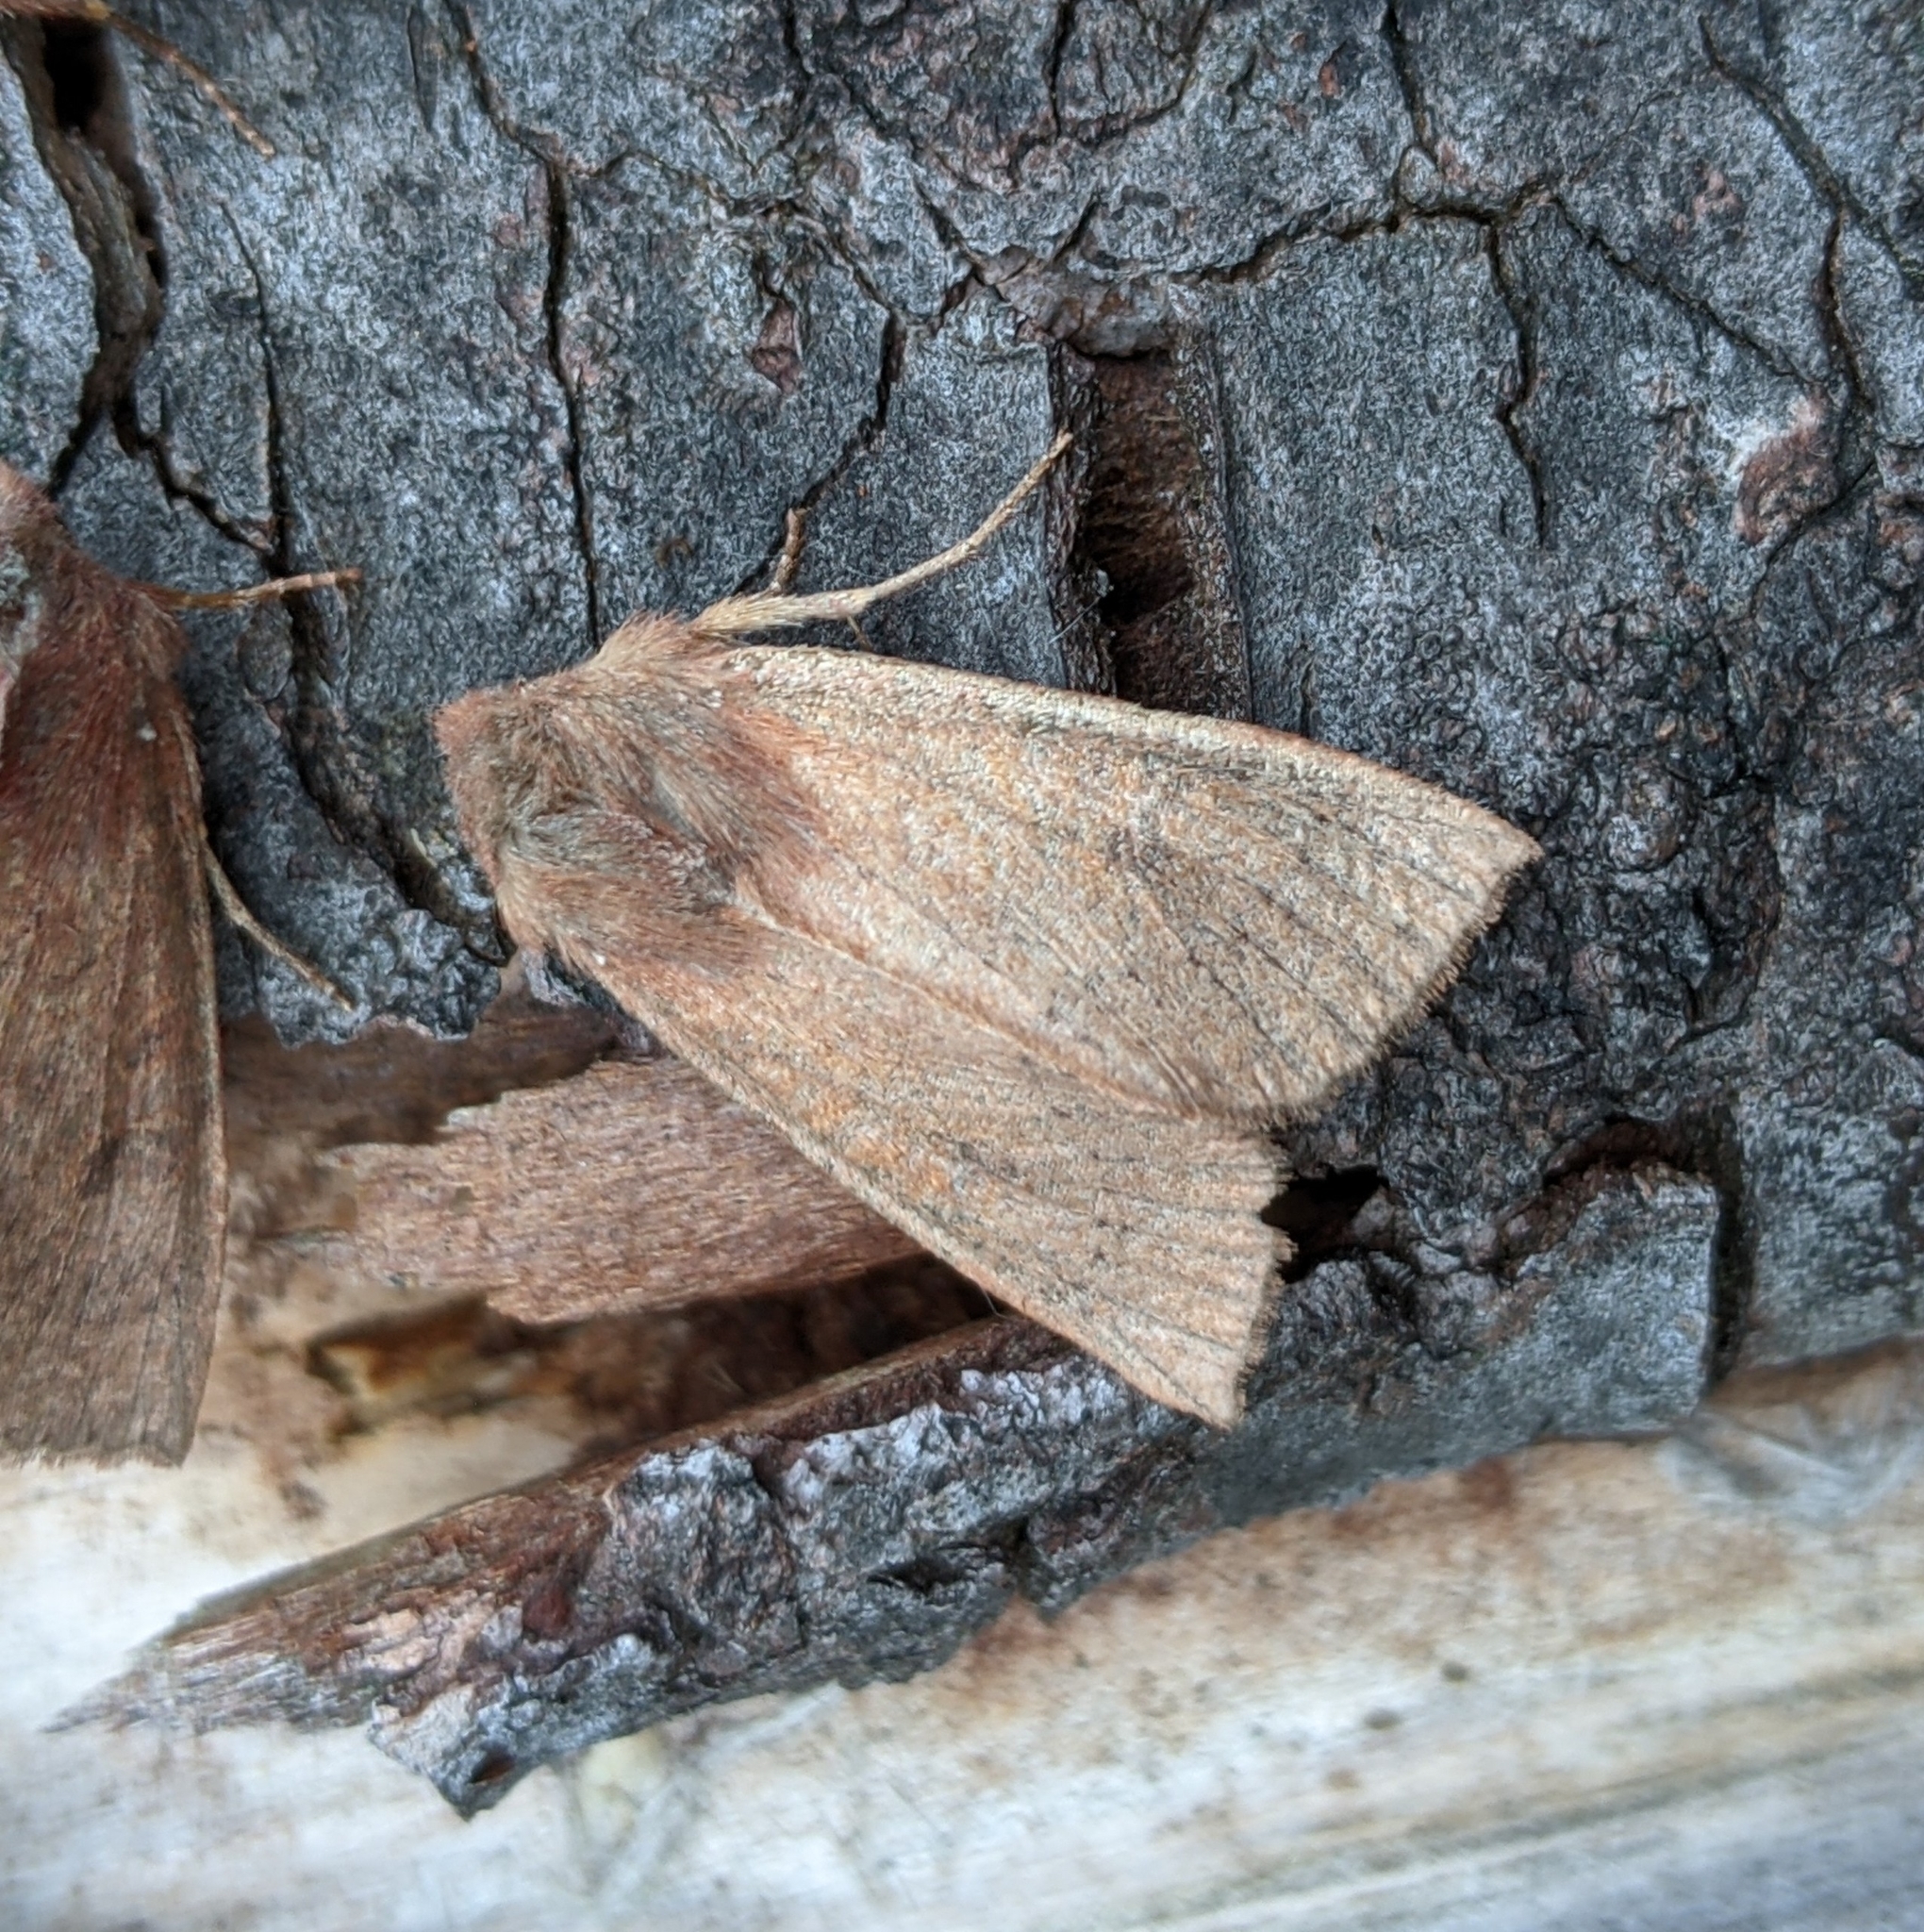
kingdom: Animalia
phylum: Arthropoda
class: Insecta
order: Lepidoptera
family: Noctuidae
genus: Orthosia
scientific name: Orthosia transparens
